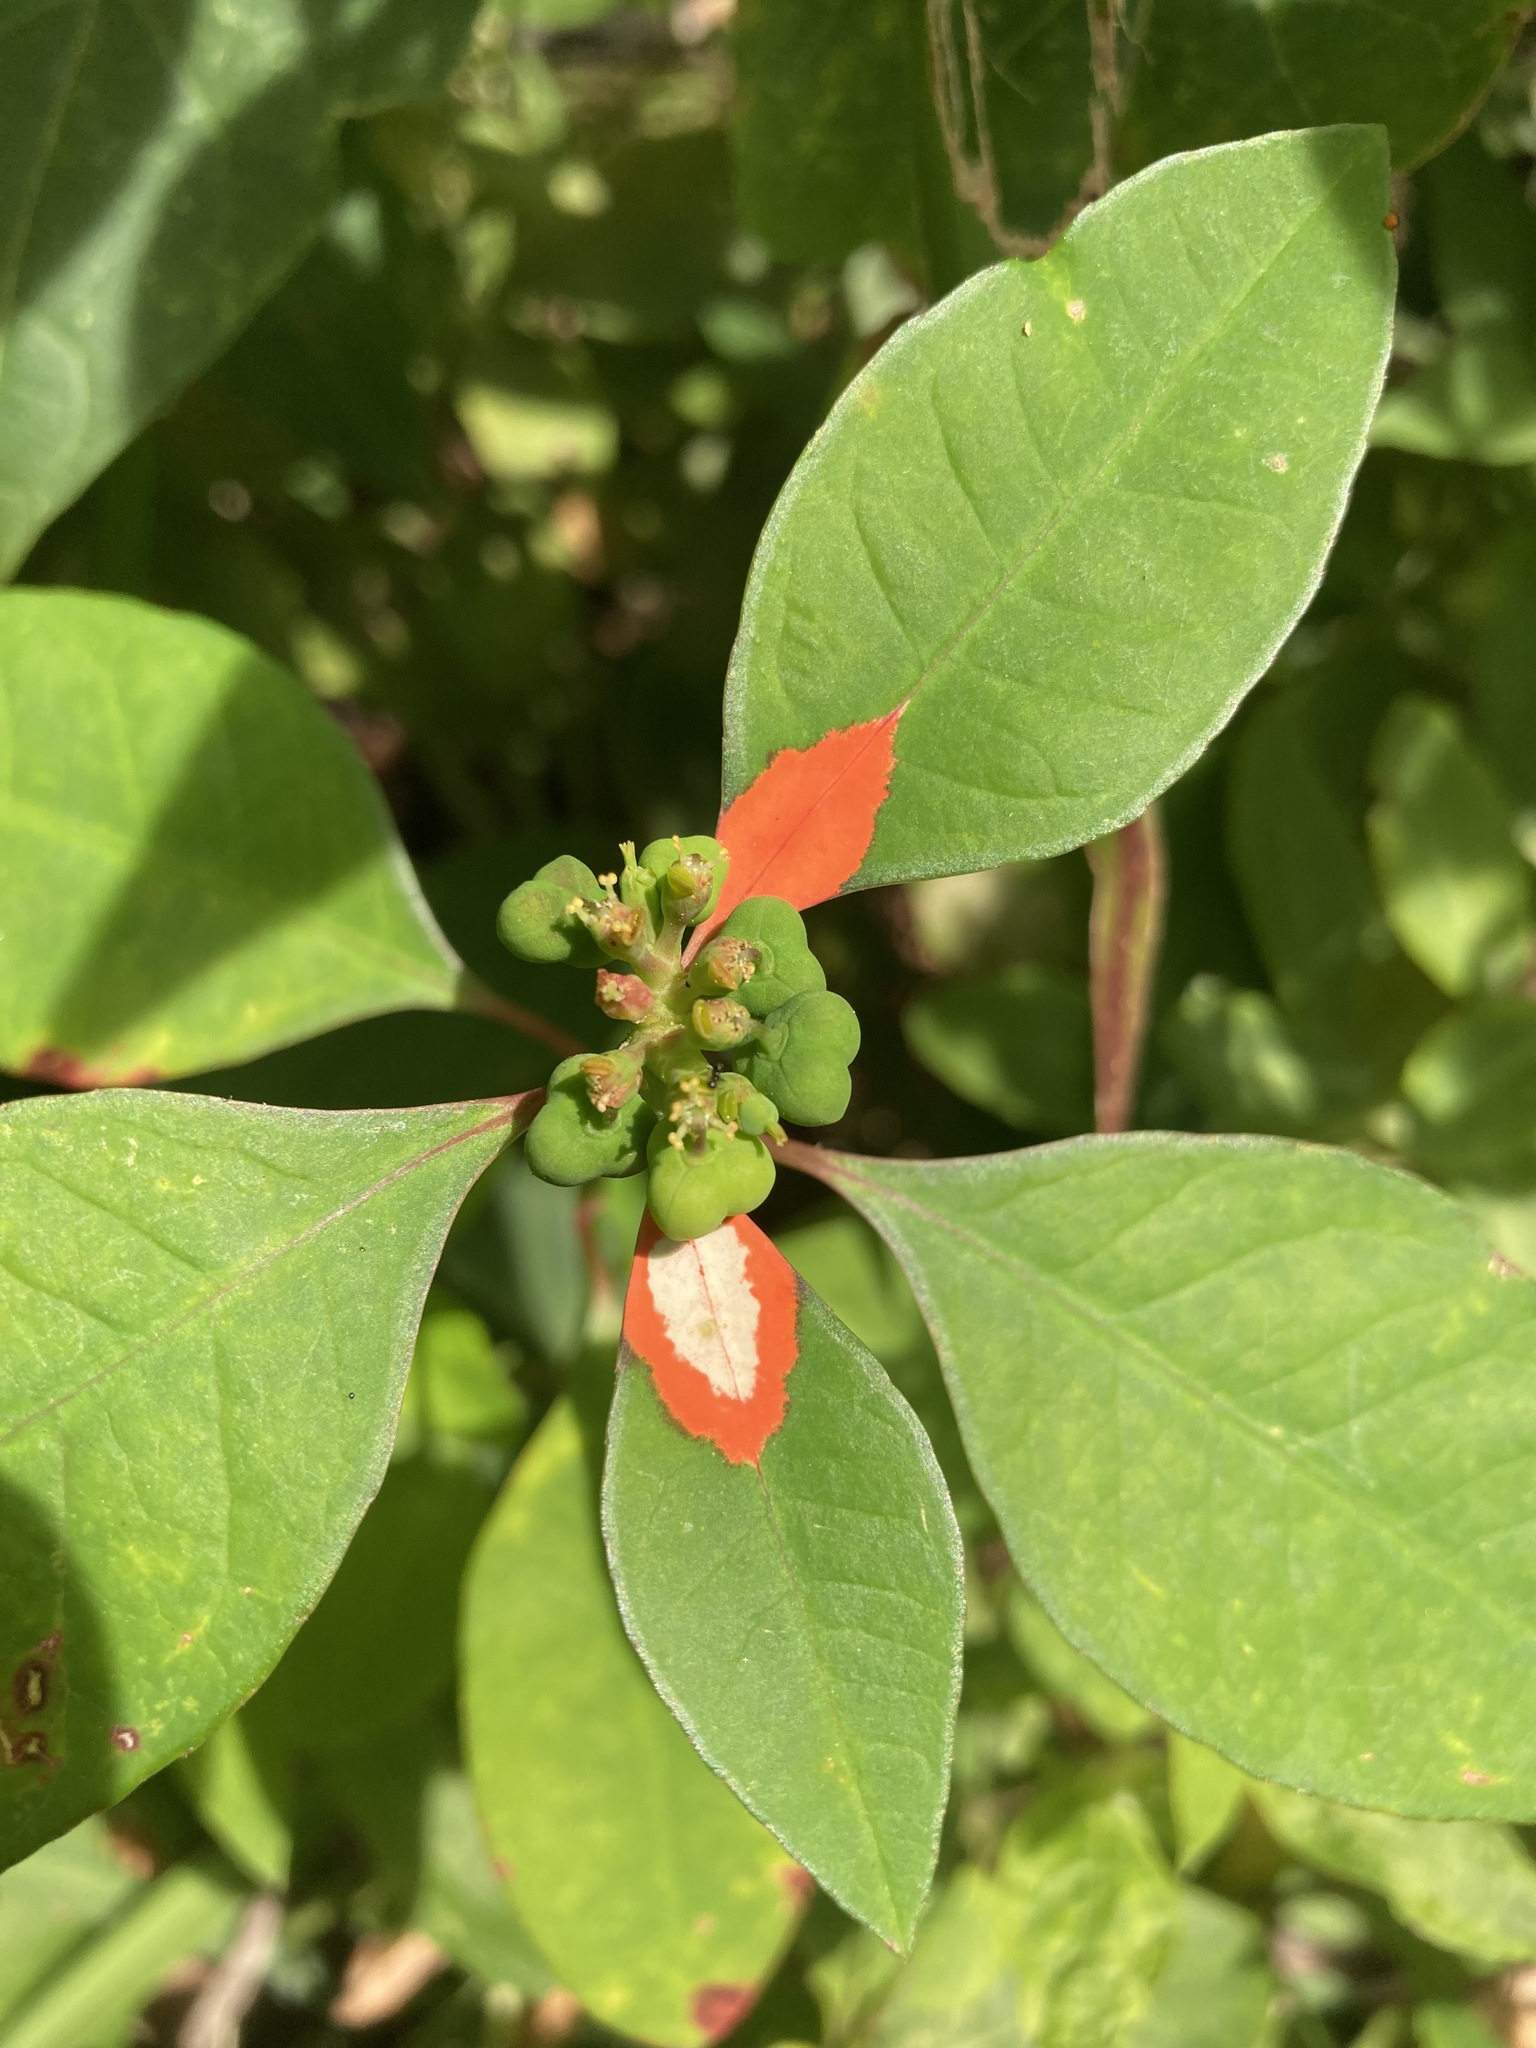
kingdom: Plantae
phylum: Tracheophyta
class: Magnoliopsida
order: Malpighiales
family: Euphorbiaceae
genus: Euphorbia
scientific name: Euphorbia heterophylla
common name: Mexican fireplant
